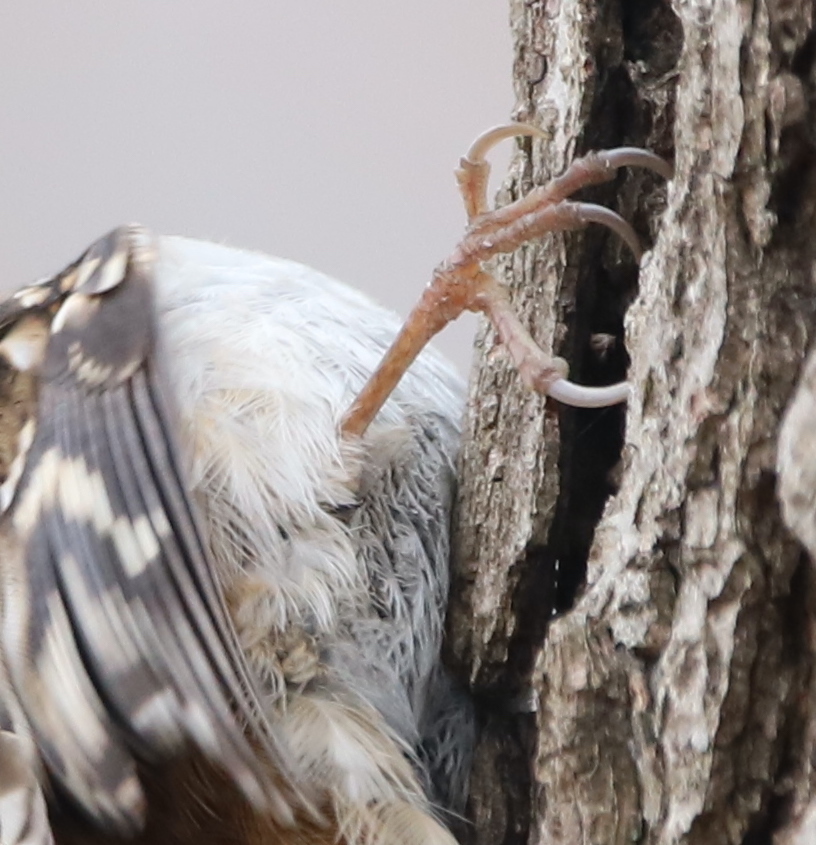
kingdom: Animalia
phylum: Chordata
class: Aves
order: Passeriformes
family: Certhiidae
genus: Certhia
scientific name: Certhia americana
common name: Brown creeper
